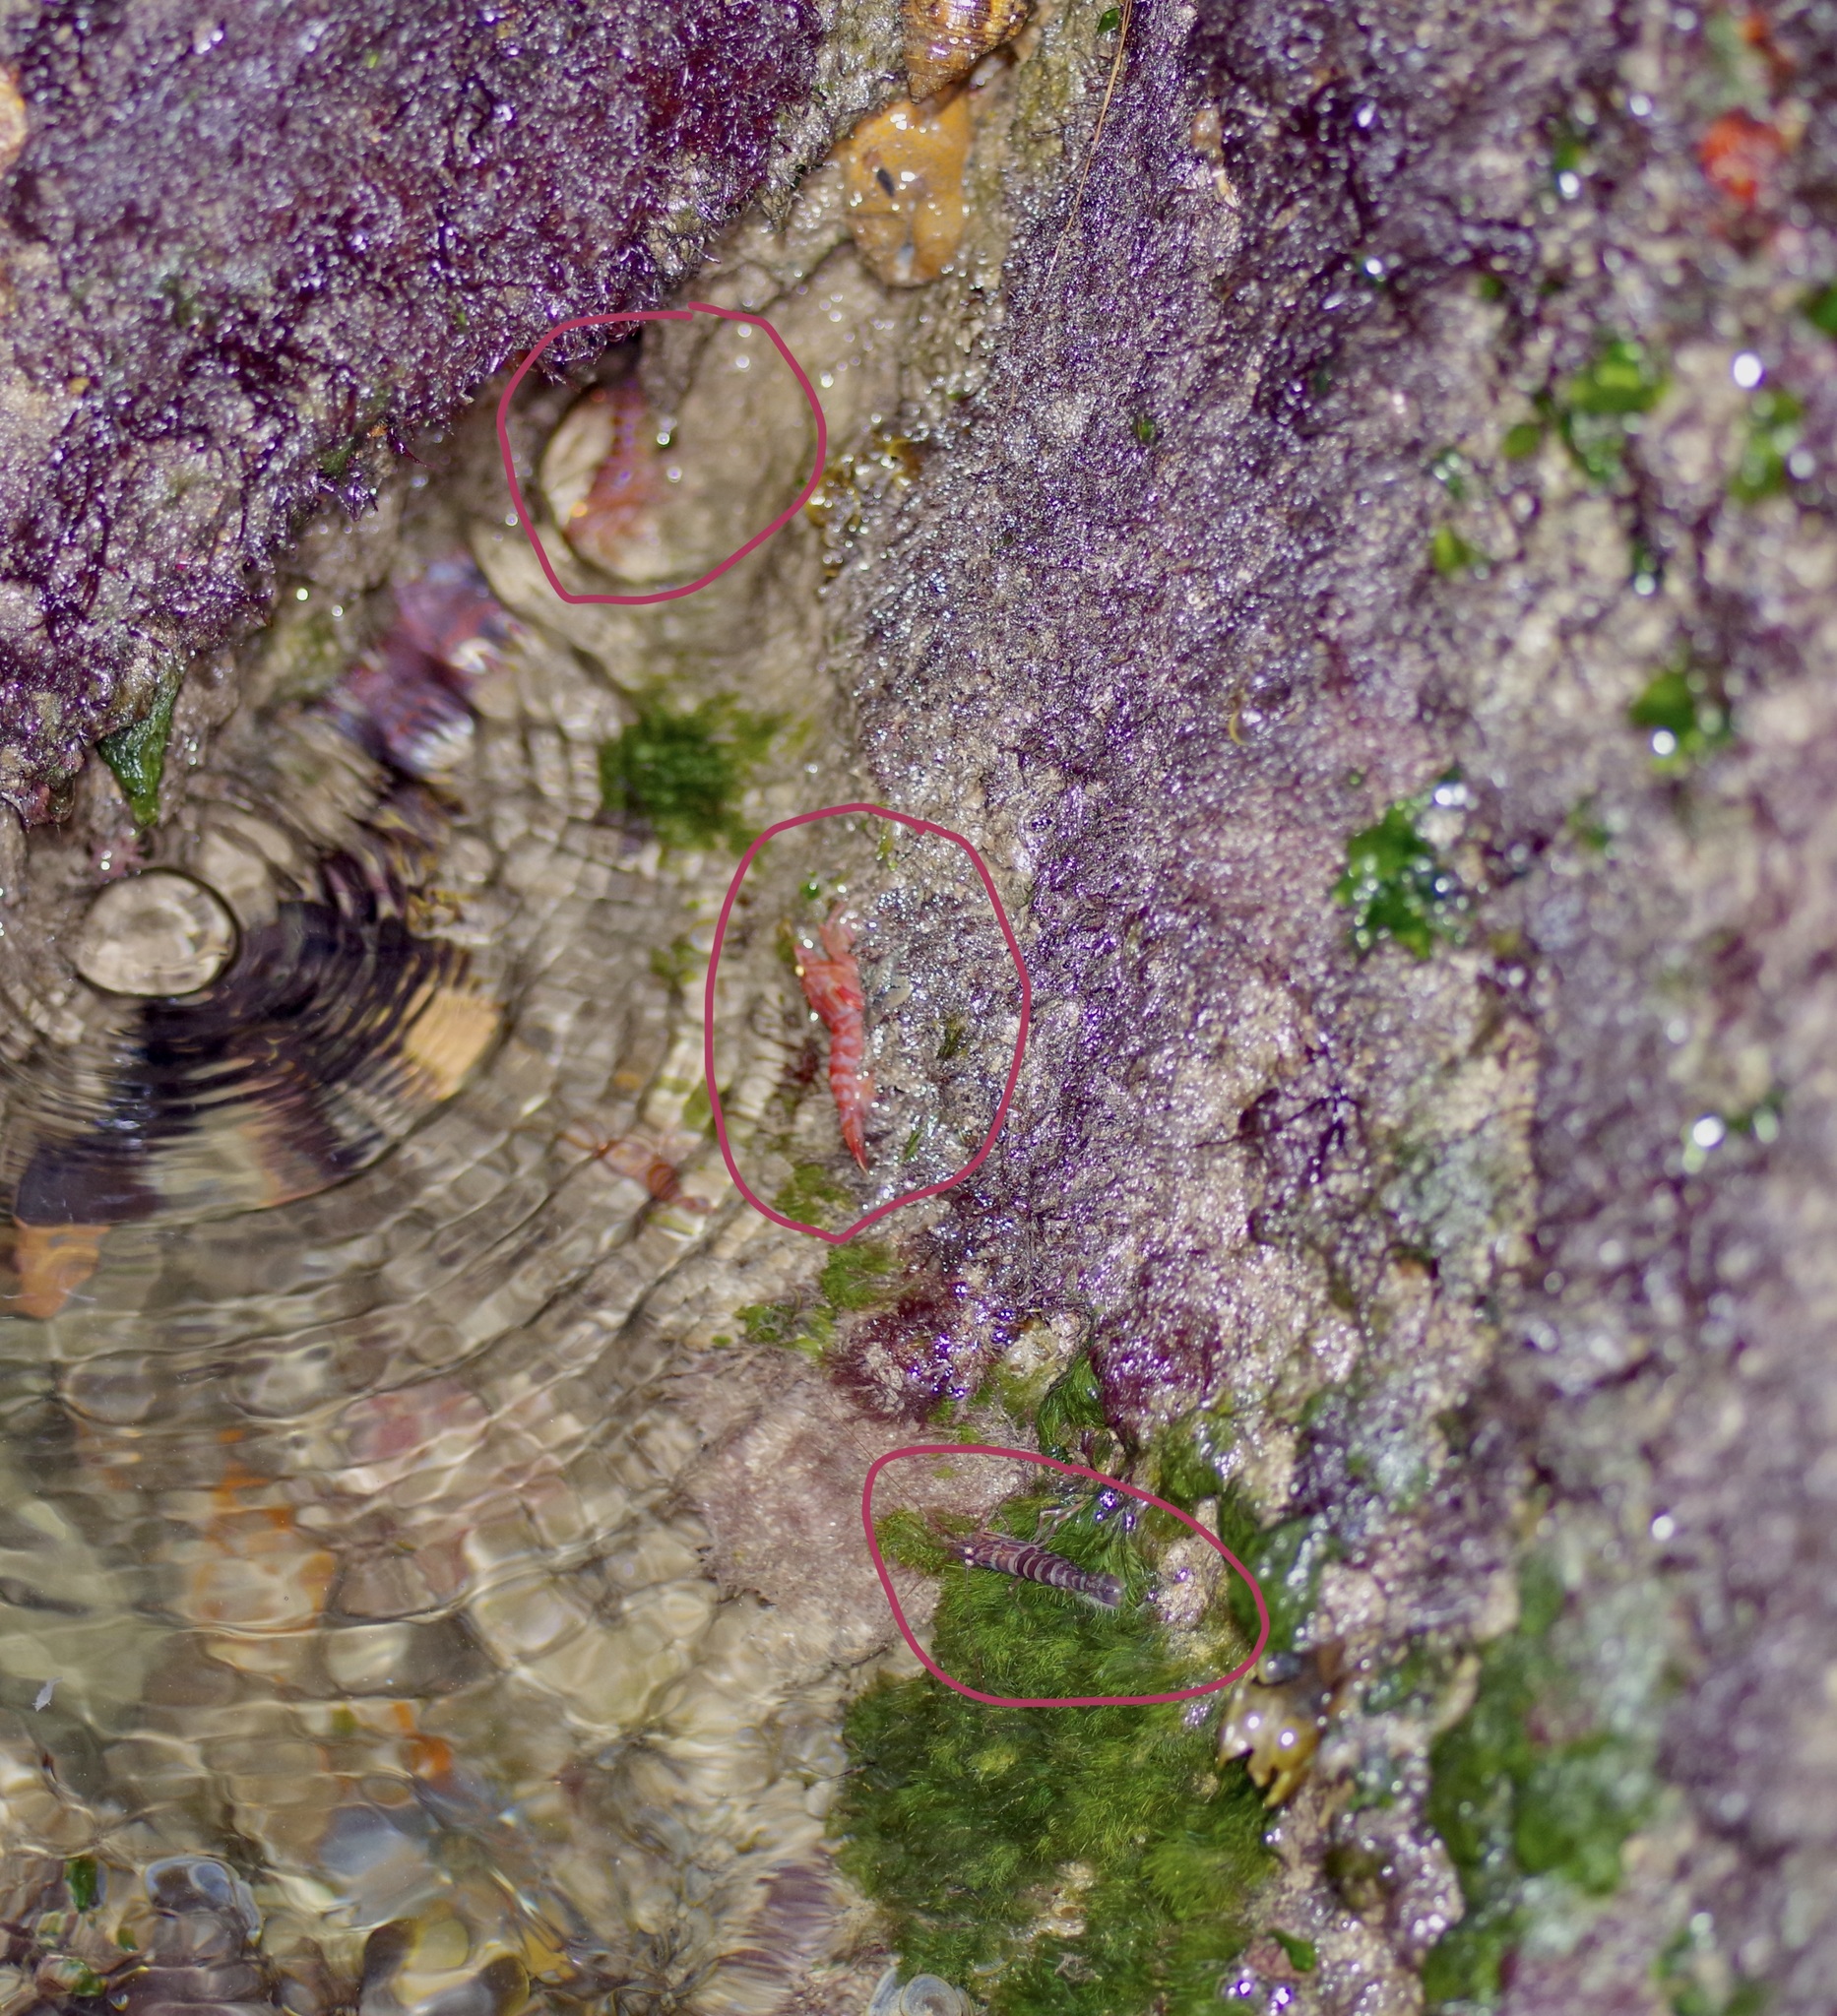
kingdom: Animalia
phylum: Arthropoda
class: Malacostraca
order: Decapoda
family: Lysmatidae
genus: Lysmata
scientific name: Lysmata hochi
